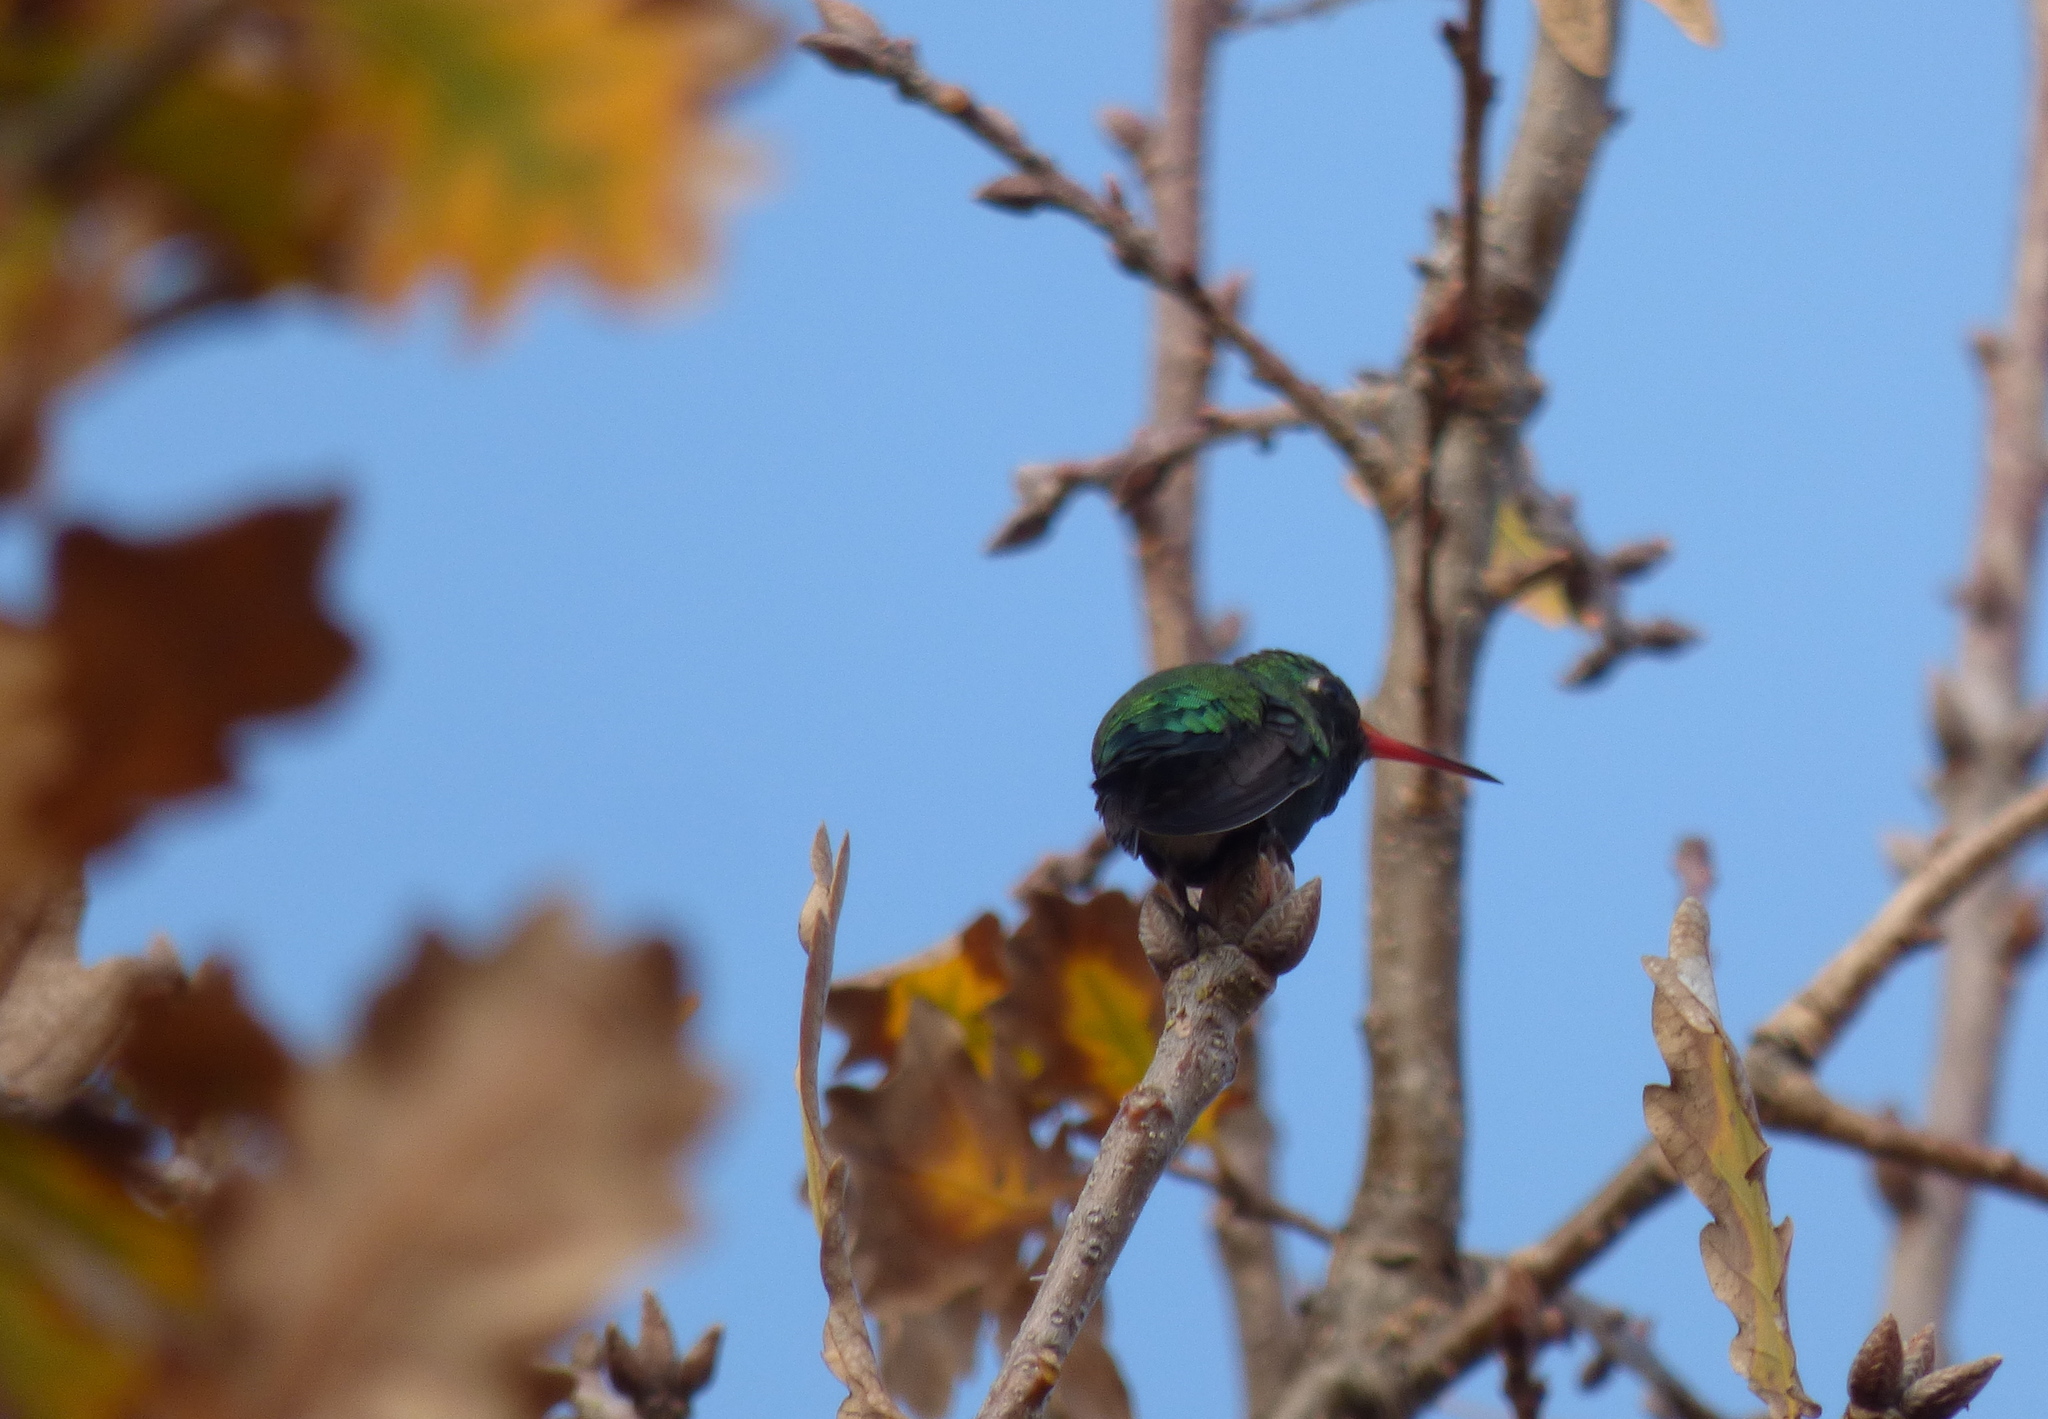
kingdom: Animalia
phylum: Chordata
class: Aves
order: Apodiformes
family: Trochilidae
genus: Chlorostilbon
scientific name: Chlorostilbon lucidus
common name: Glittering-bellied emerald
